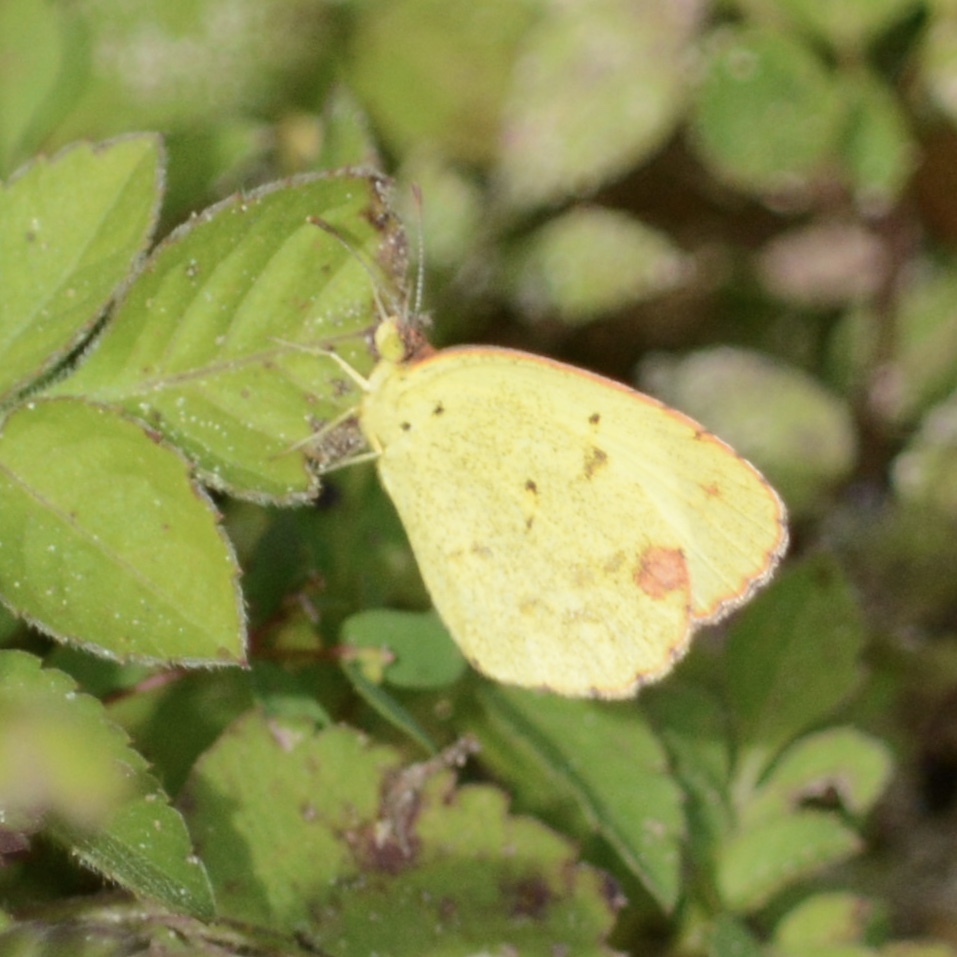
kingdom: Animalia
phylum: Arthropoda
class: Insecta
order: Lepidoptera
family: Pieridae
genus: Pyrisitia
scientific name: Pyrisitia lisa
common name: Little yellow
